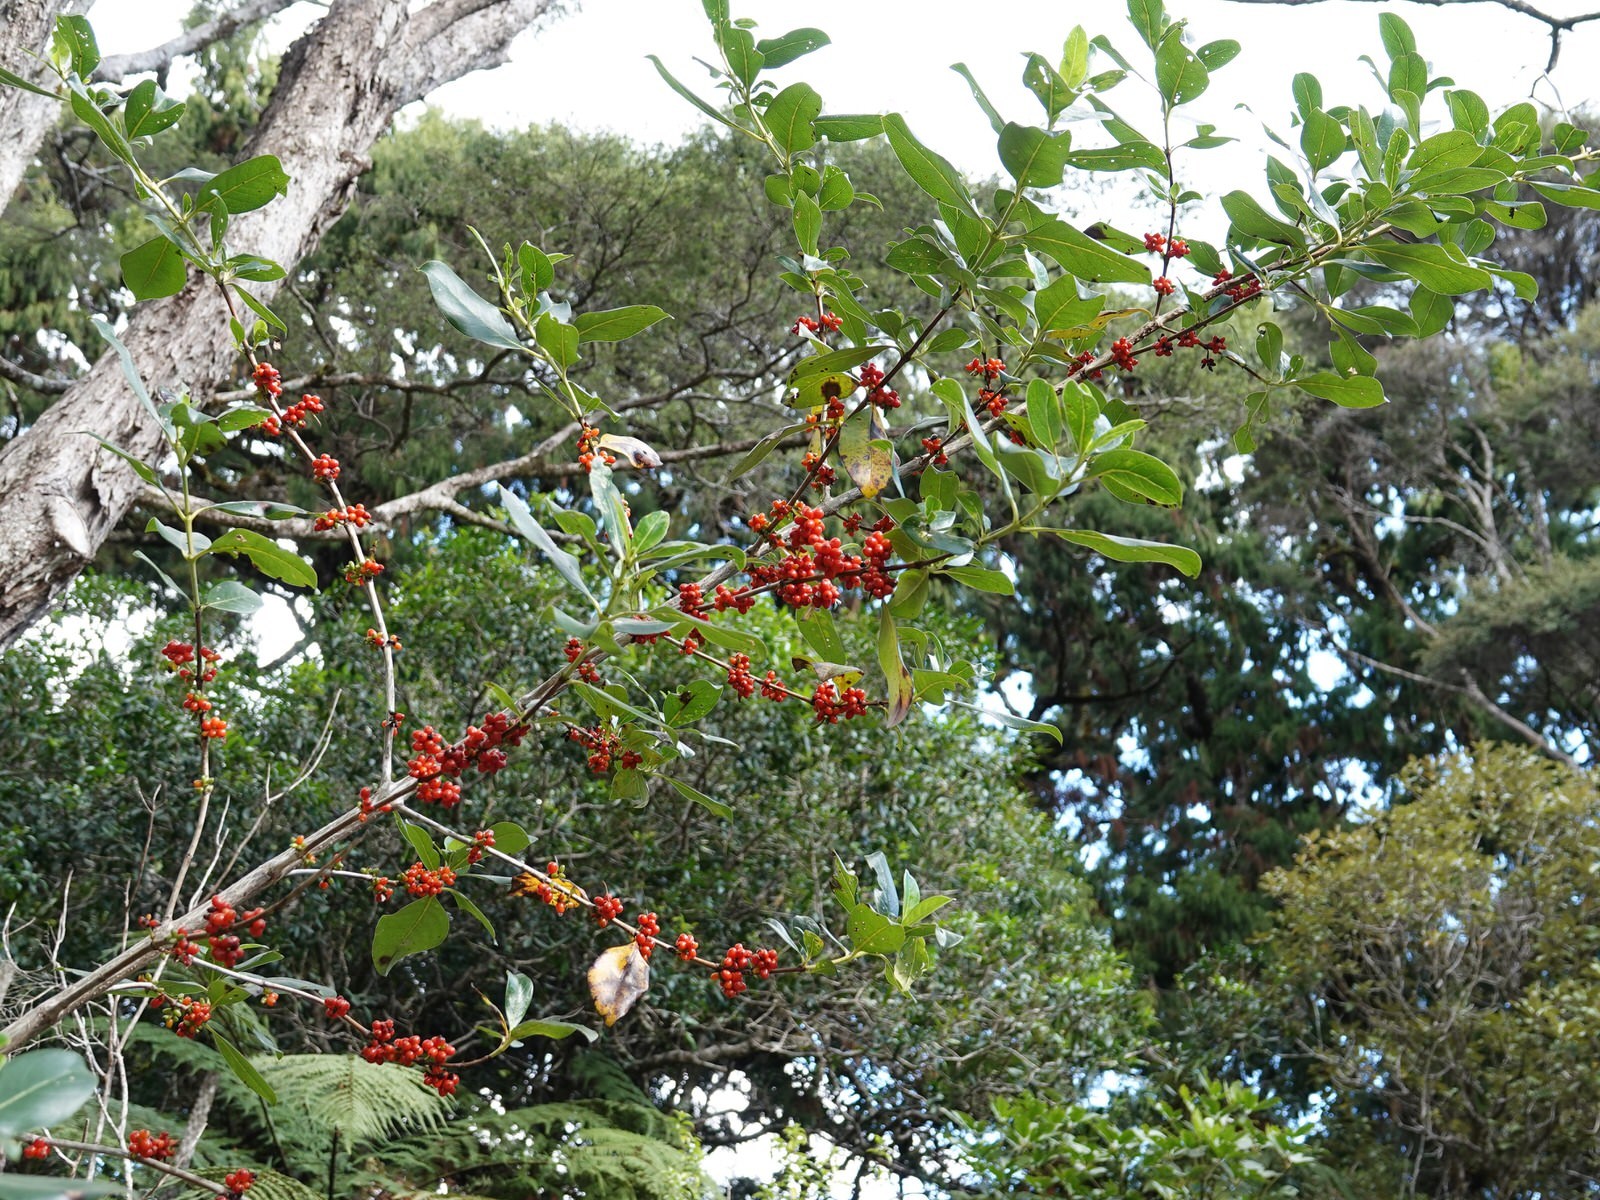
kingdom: Plantae
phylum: Tracheophyta
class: Magnoliopsida
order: Gentianales
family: Rubiaceae
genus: Coprosma
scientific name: Coprosma robusta
